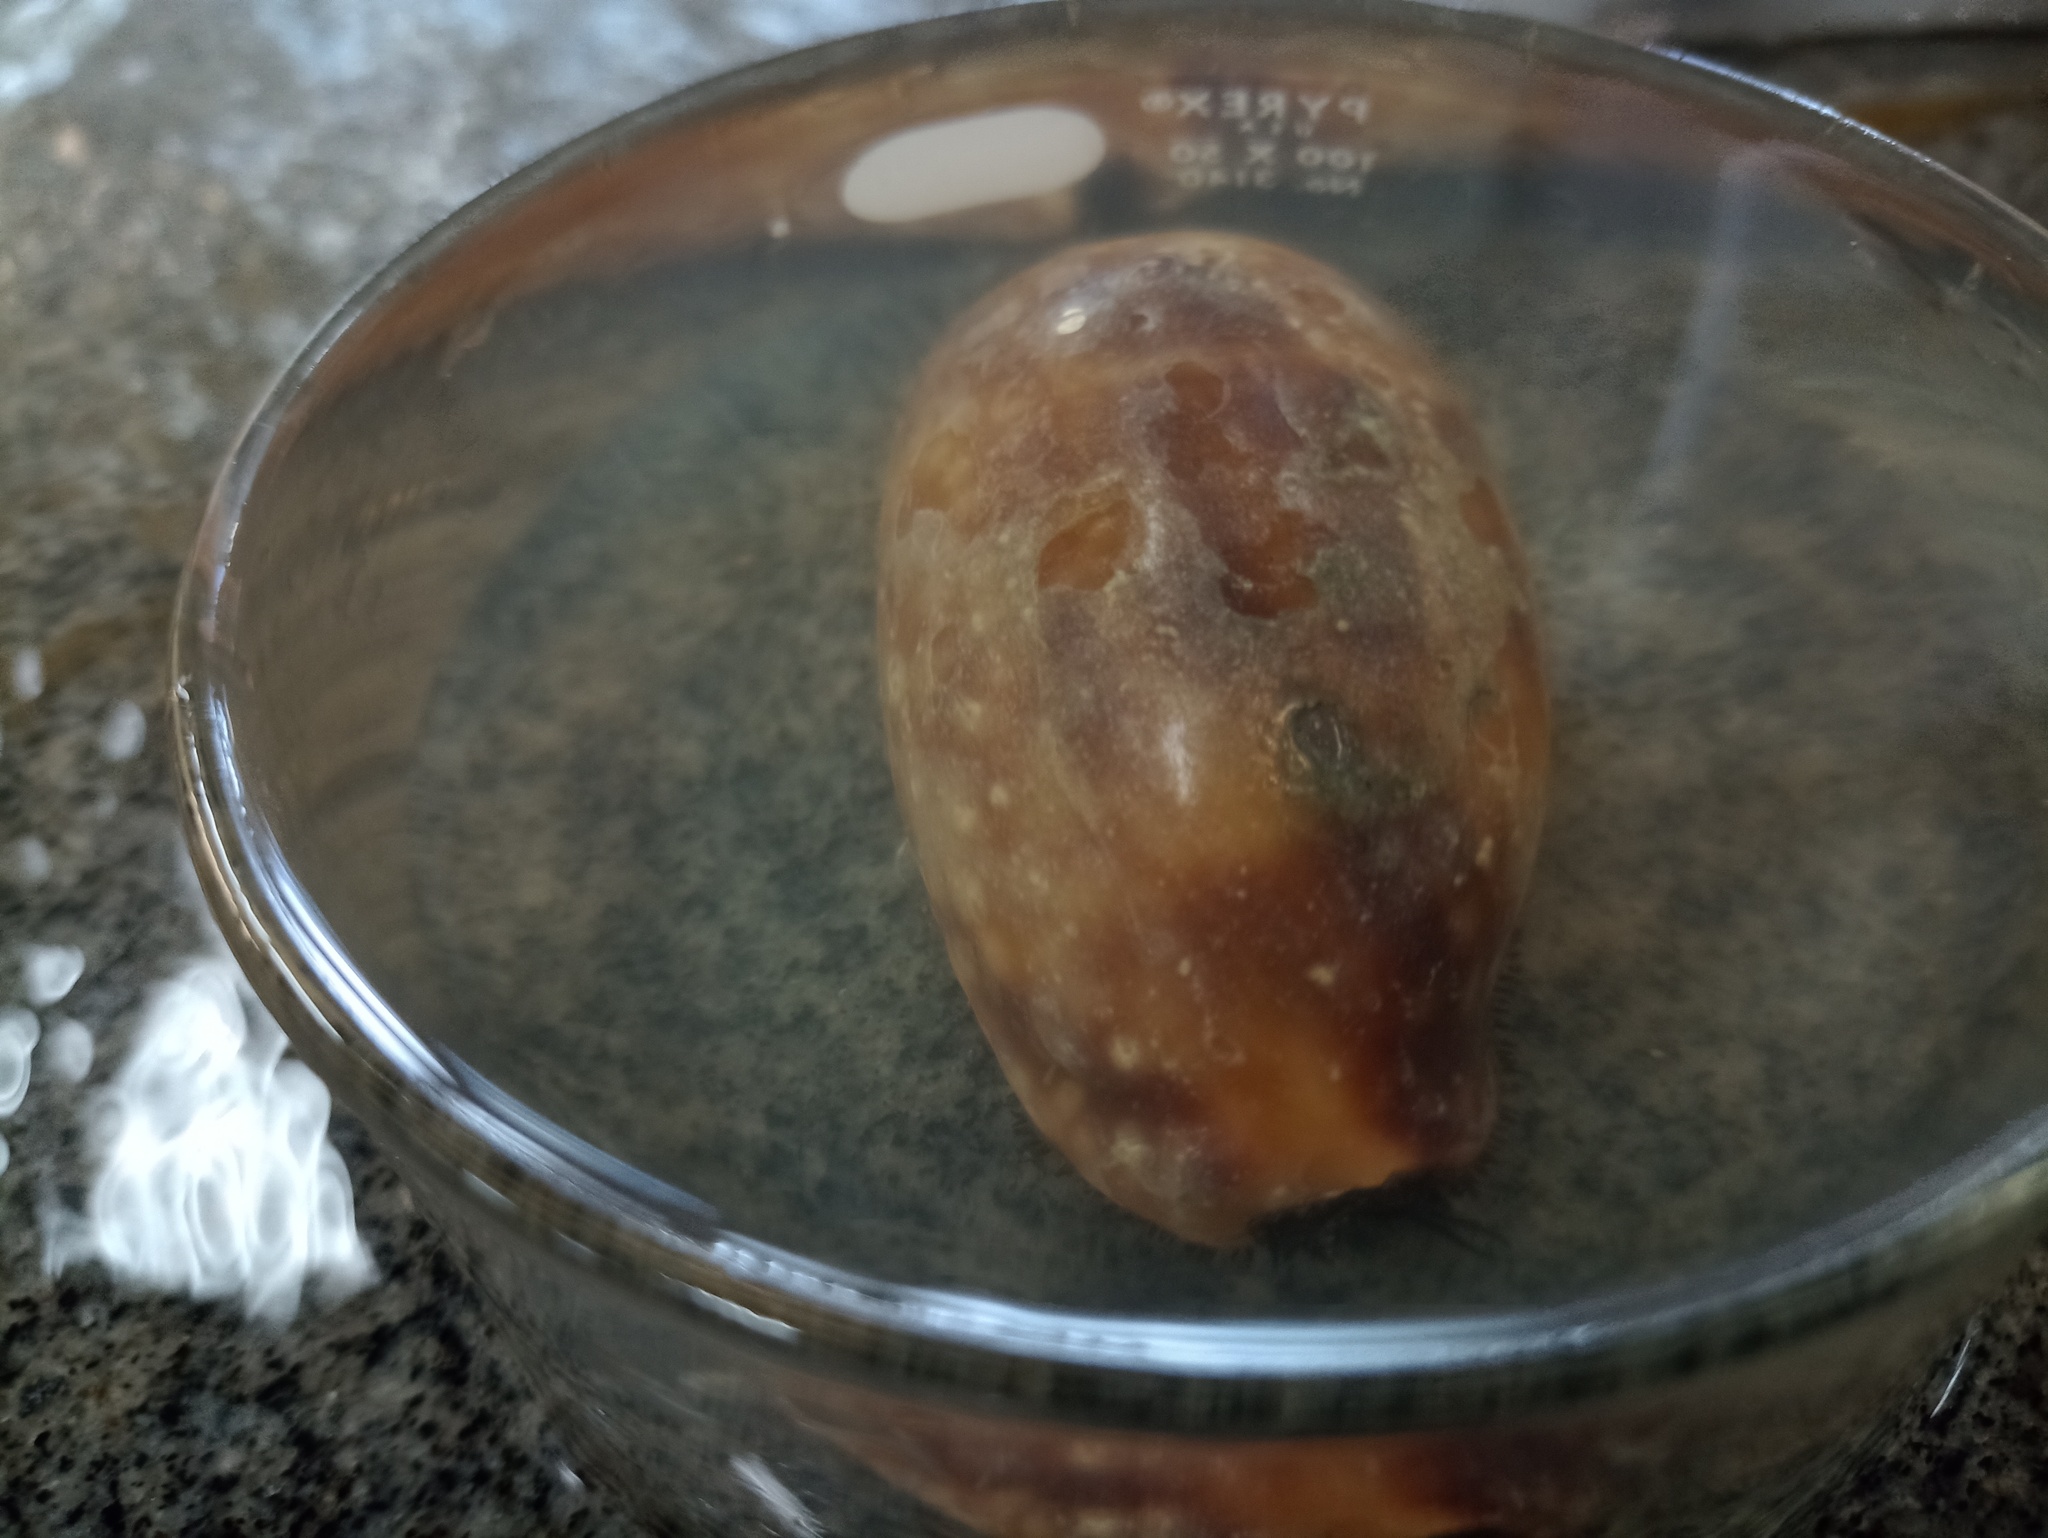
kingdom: Animalia
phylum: Mollusca
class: Gastropoda
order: Littorinimorpha
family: Cypraeidae
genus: Macrocypraea
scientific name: Macrocypraea zebra
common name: Measled cowrie
